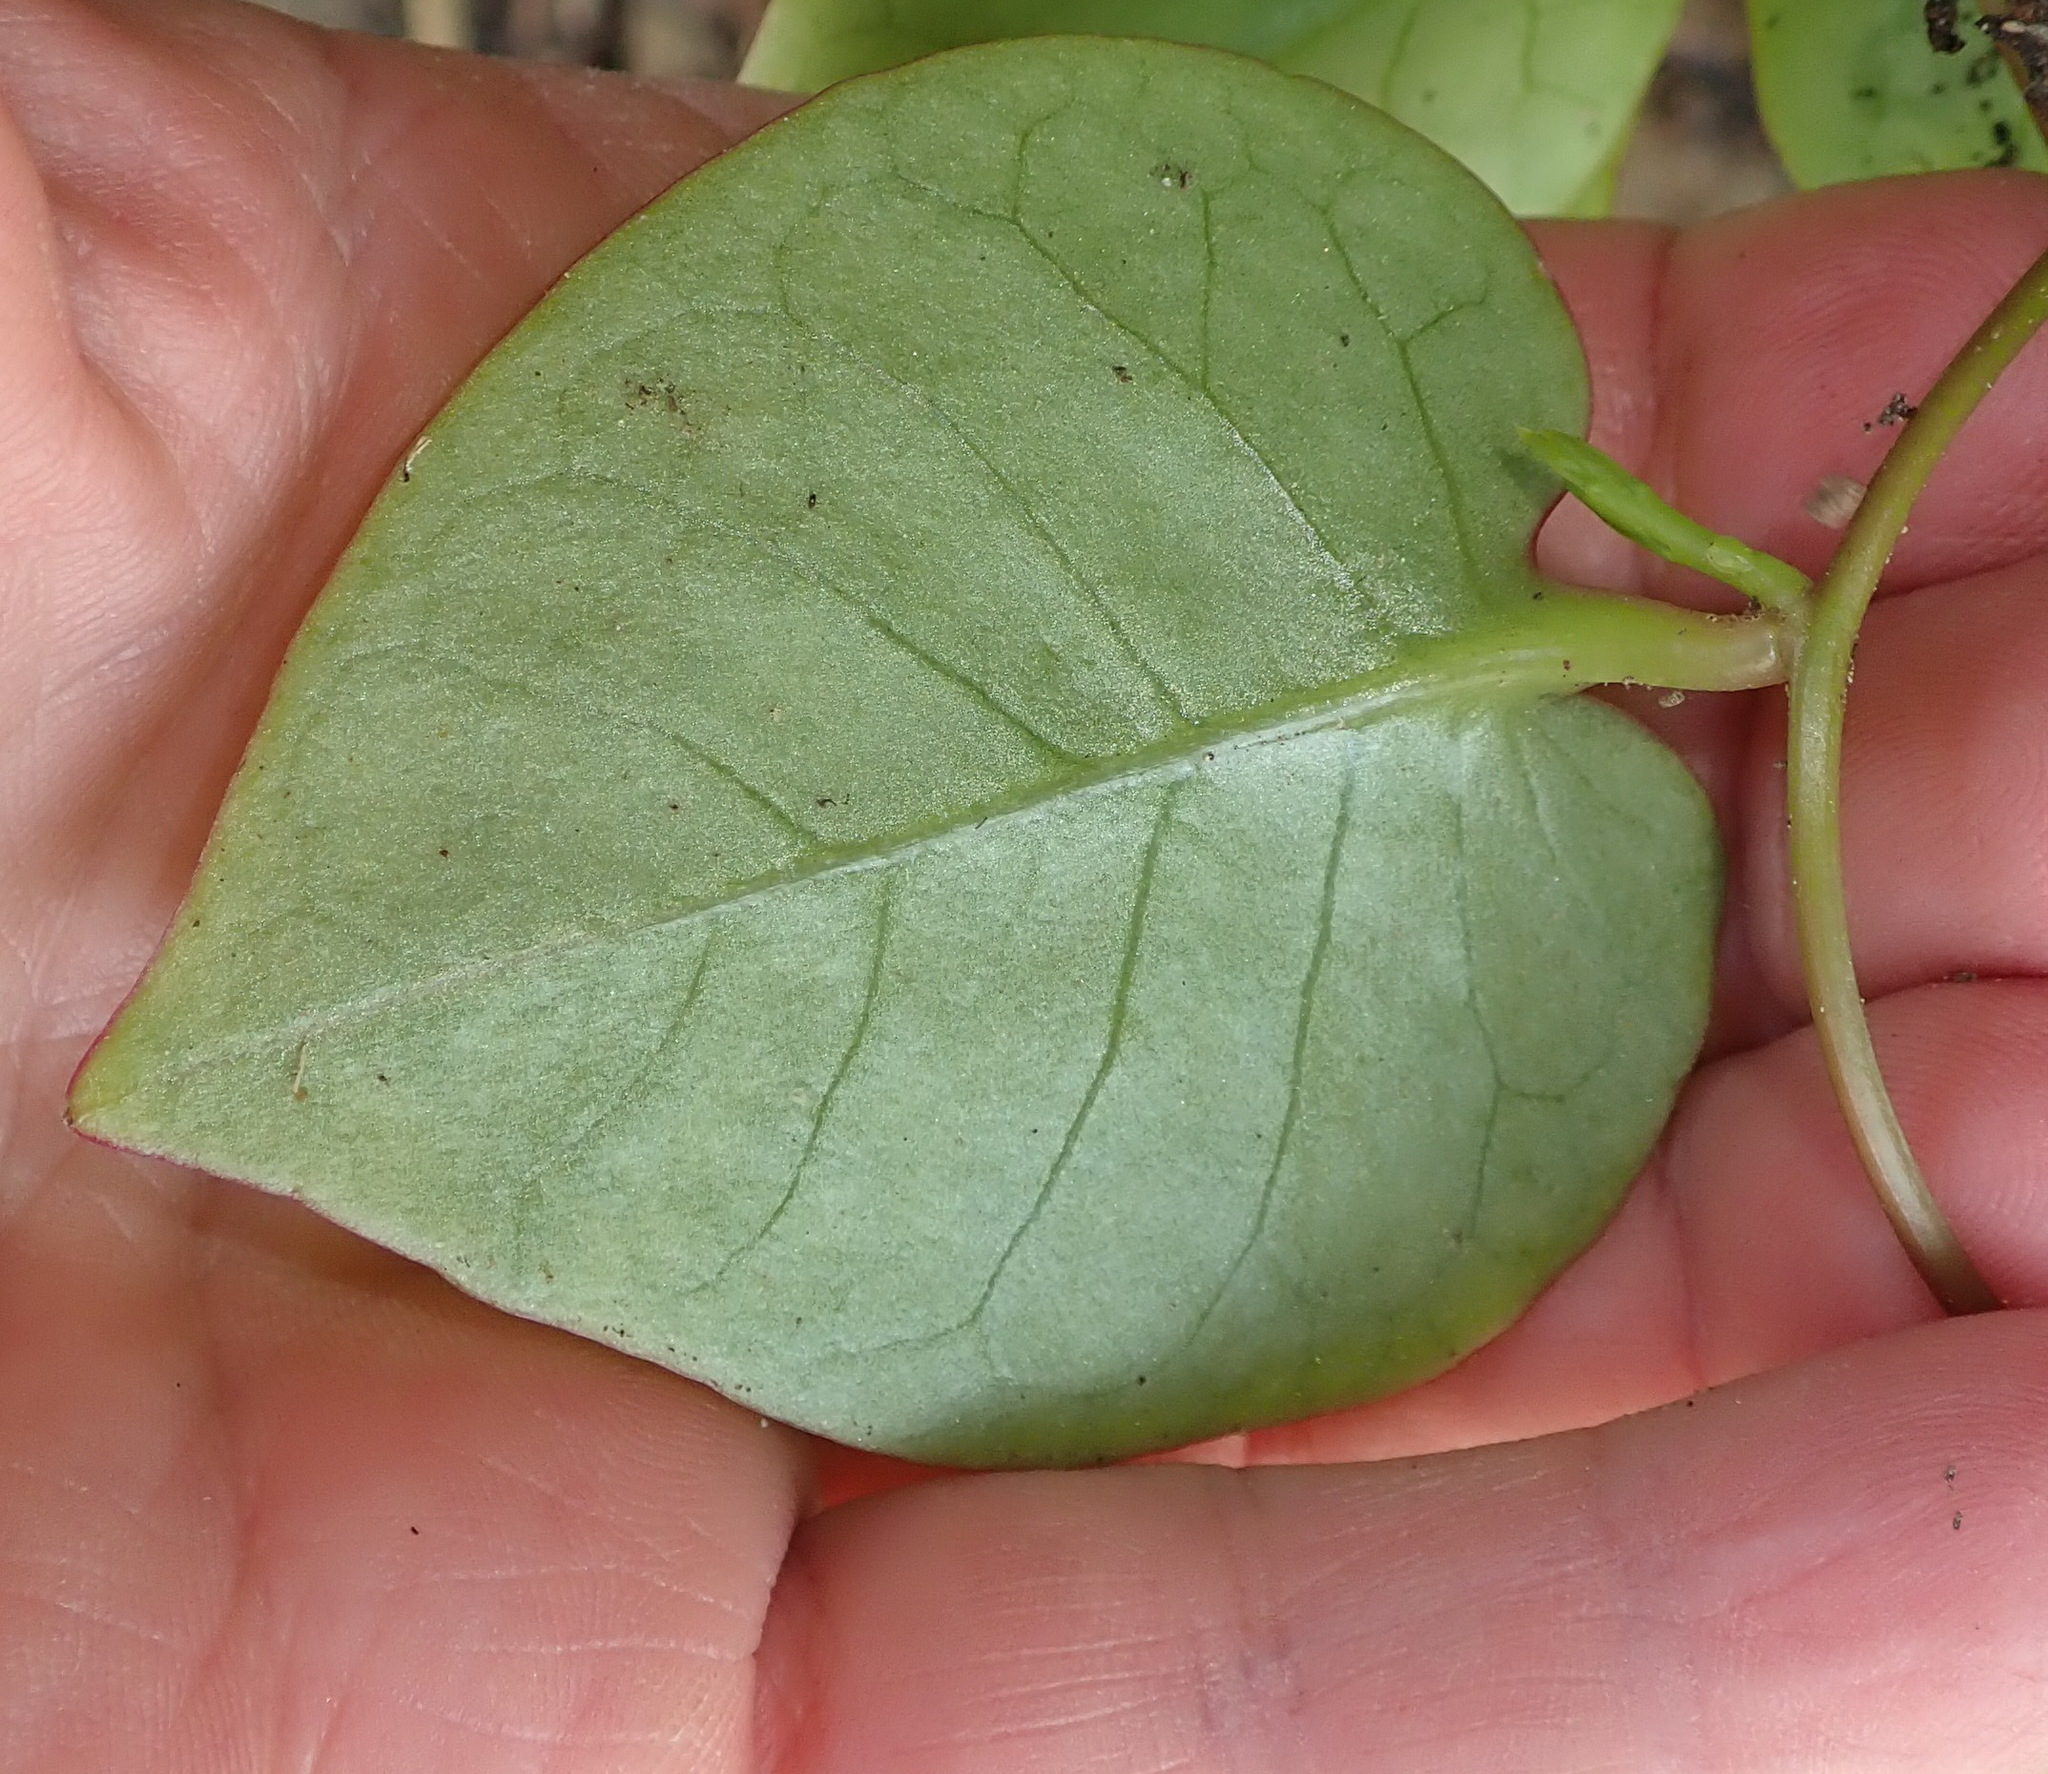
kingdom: Plantae
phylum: Tracheophyta
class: Magnoliopsida
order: Caryophyllales
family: Basellaceae
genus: Anredera
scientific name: Anredera cordifolia
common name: Heartleaf madeiravine
